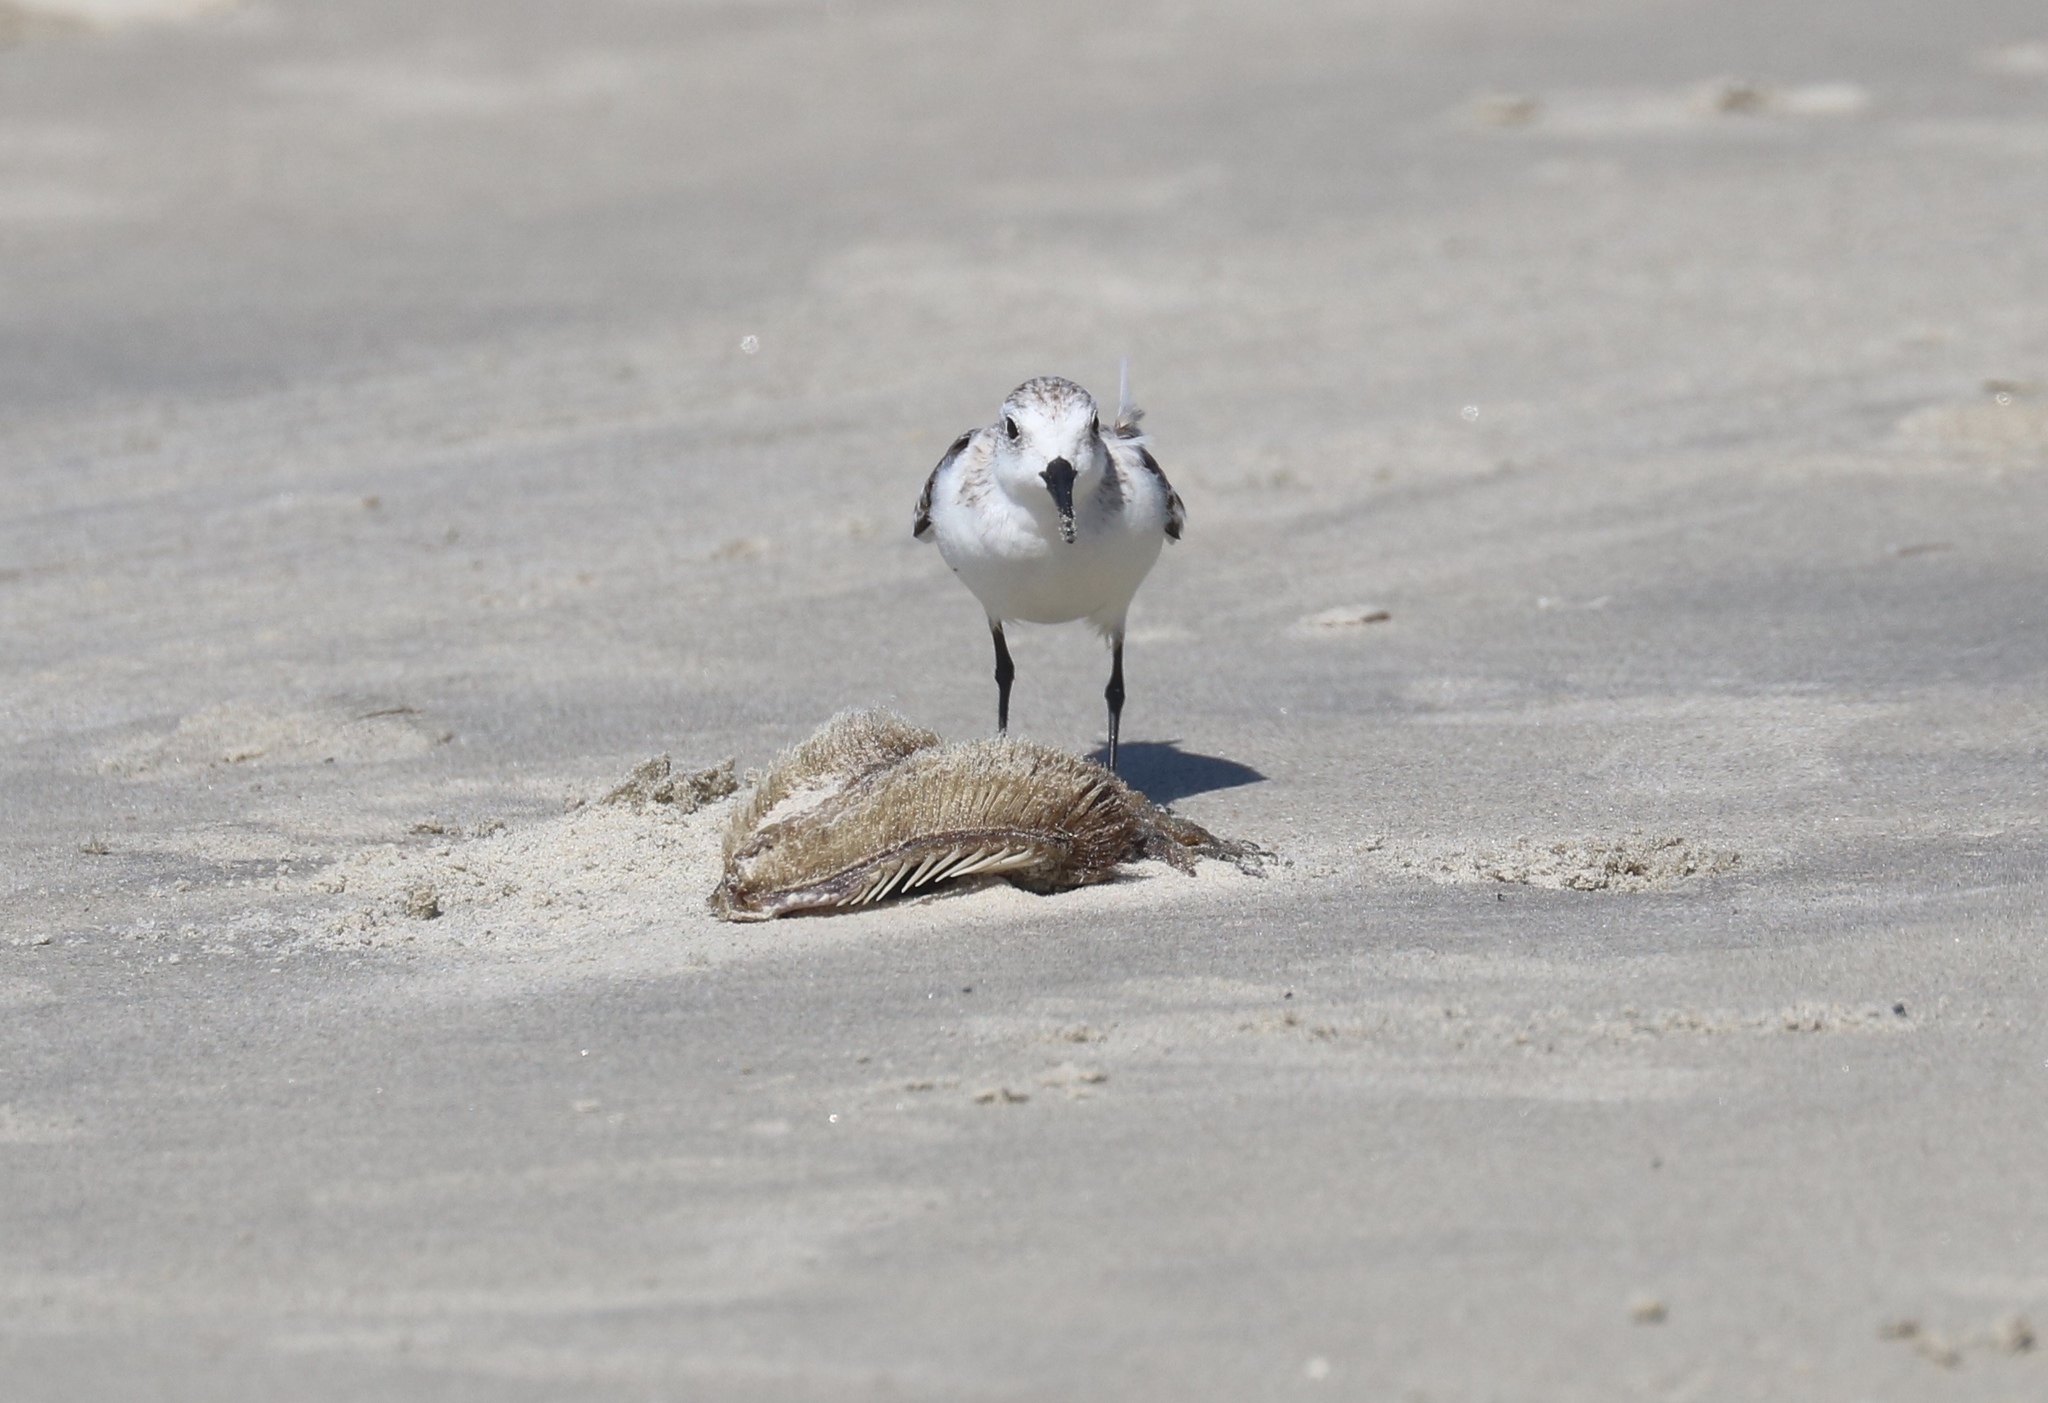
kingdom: Animalia
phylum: Chordata
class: Aves
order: Charadriiformes
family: Scolopacidae
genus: Calidris
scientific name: Calidris alba
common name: Sanderling
